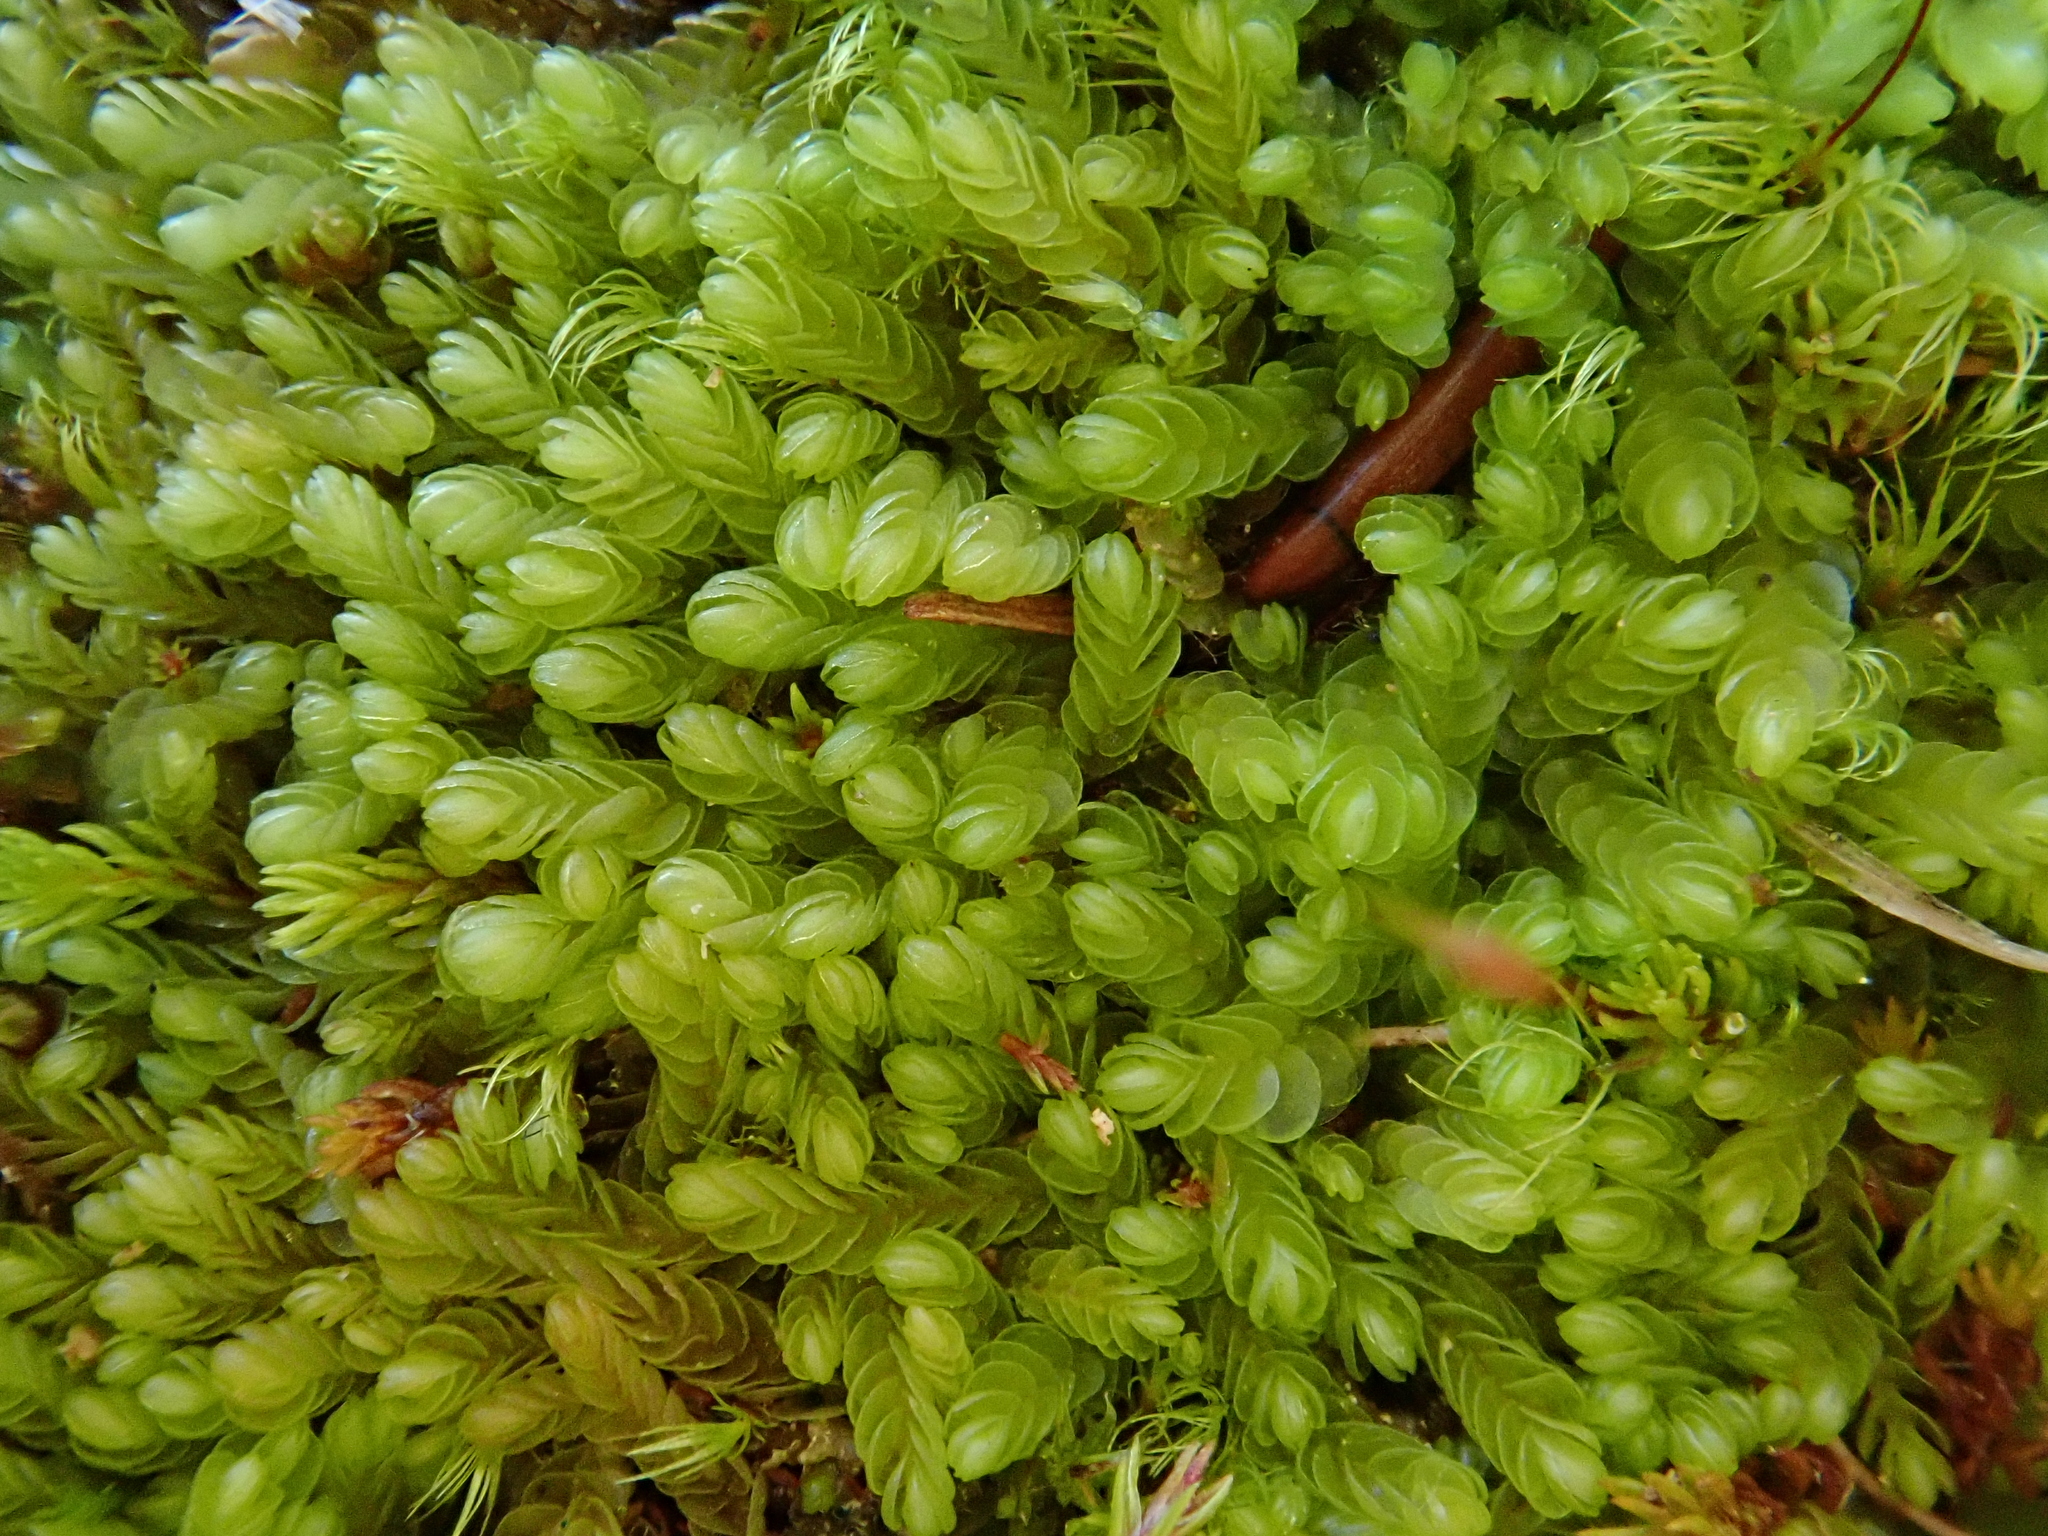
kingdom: Plantae
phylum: Marchantiophyta
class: Jungermanniopsida
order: Jungermanniales
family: Gymnomitriaceae
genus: Nardia
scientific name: Nardia scalaris
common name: Ladder flapwort
